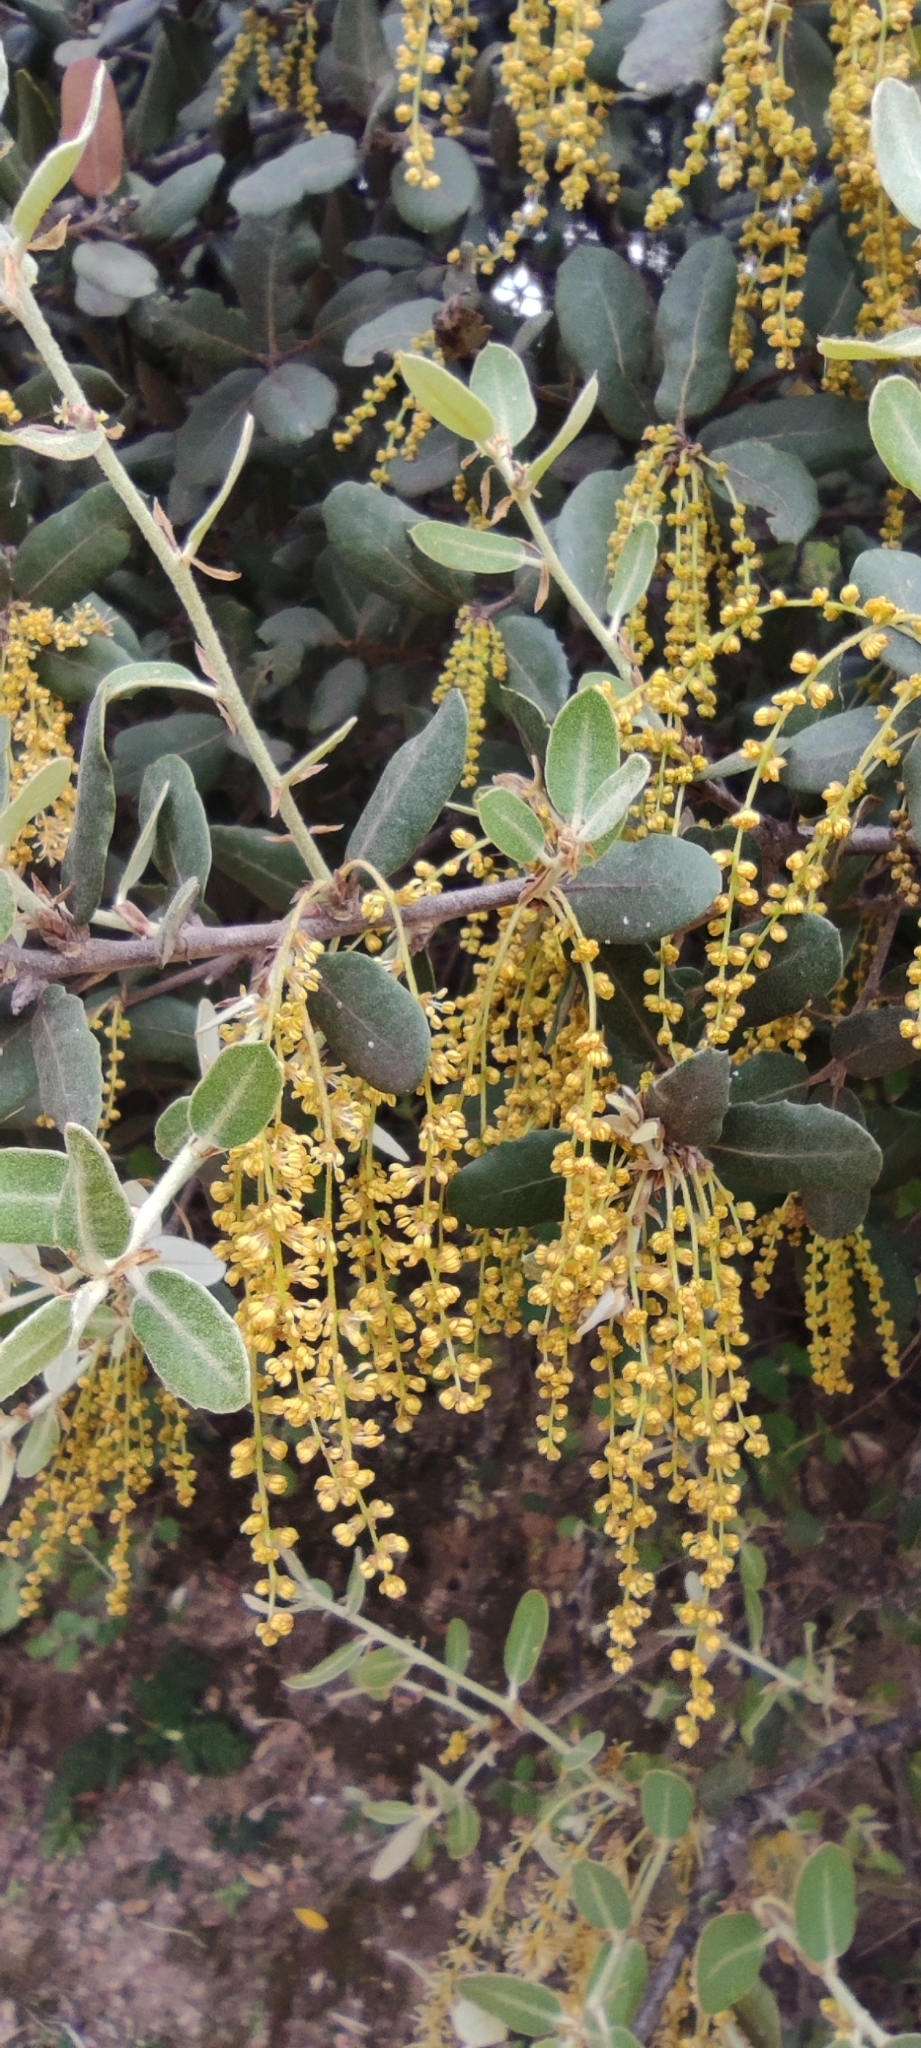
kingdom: Plantae
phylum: Tracheophyta
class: Magnoliopsida
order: Fagales
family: Fagaceae
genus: Quercus
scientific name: Quercus rotundifolia
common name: Holm oak
